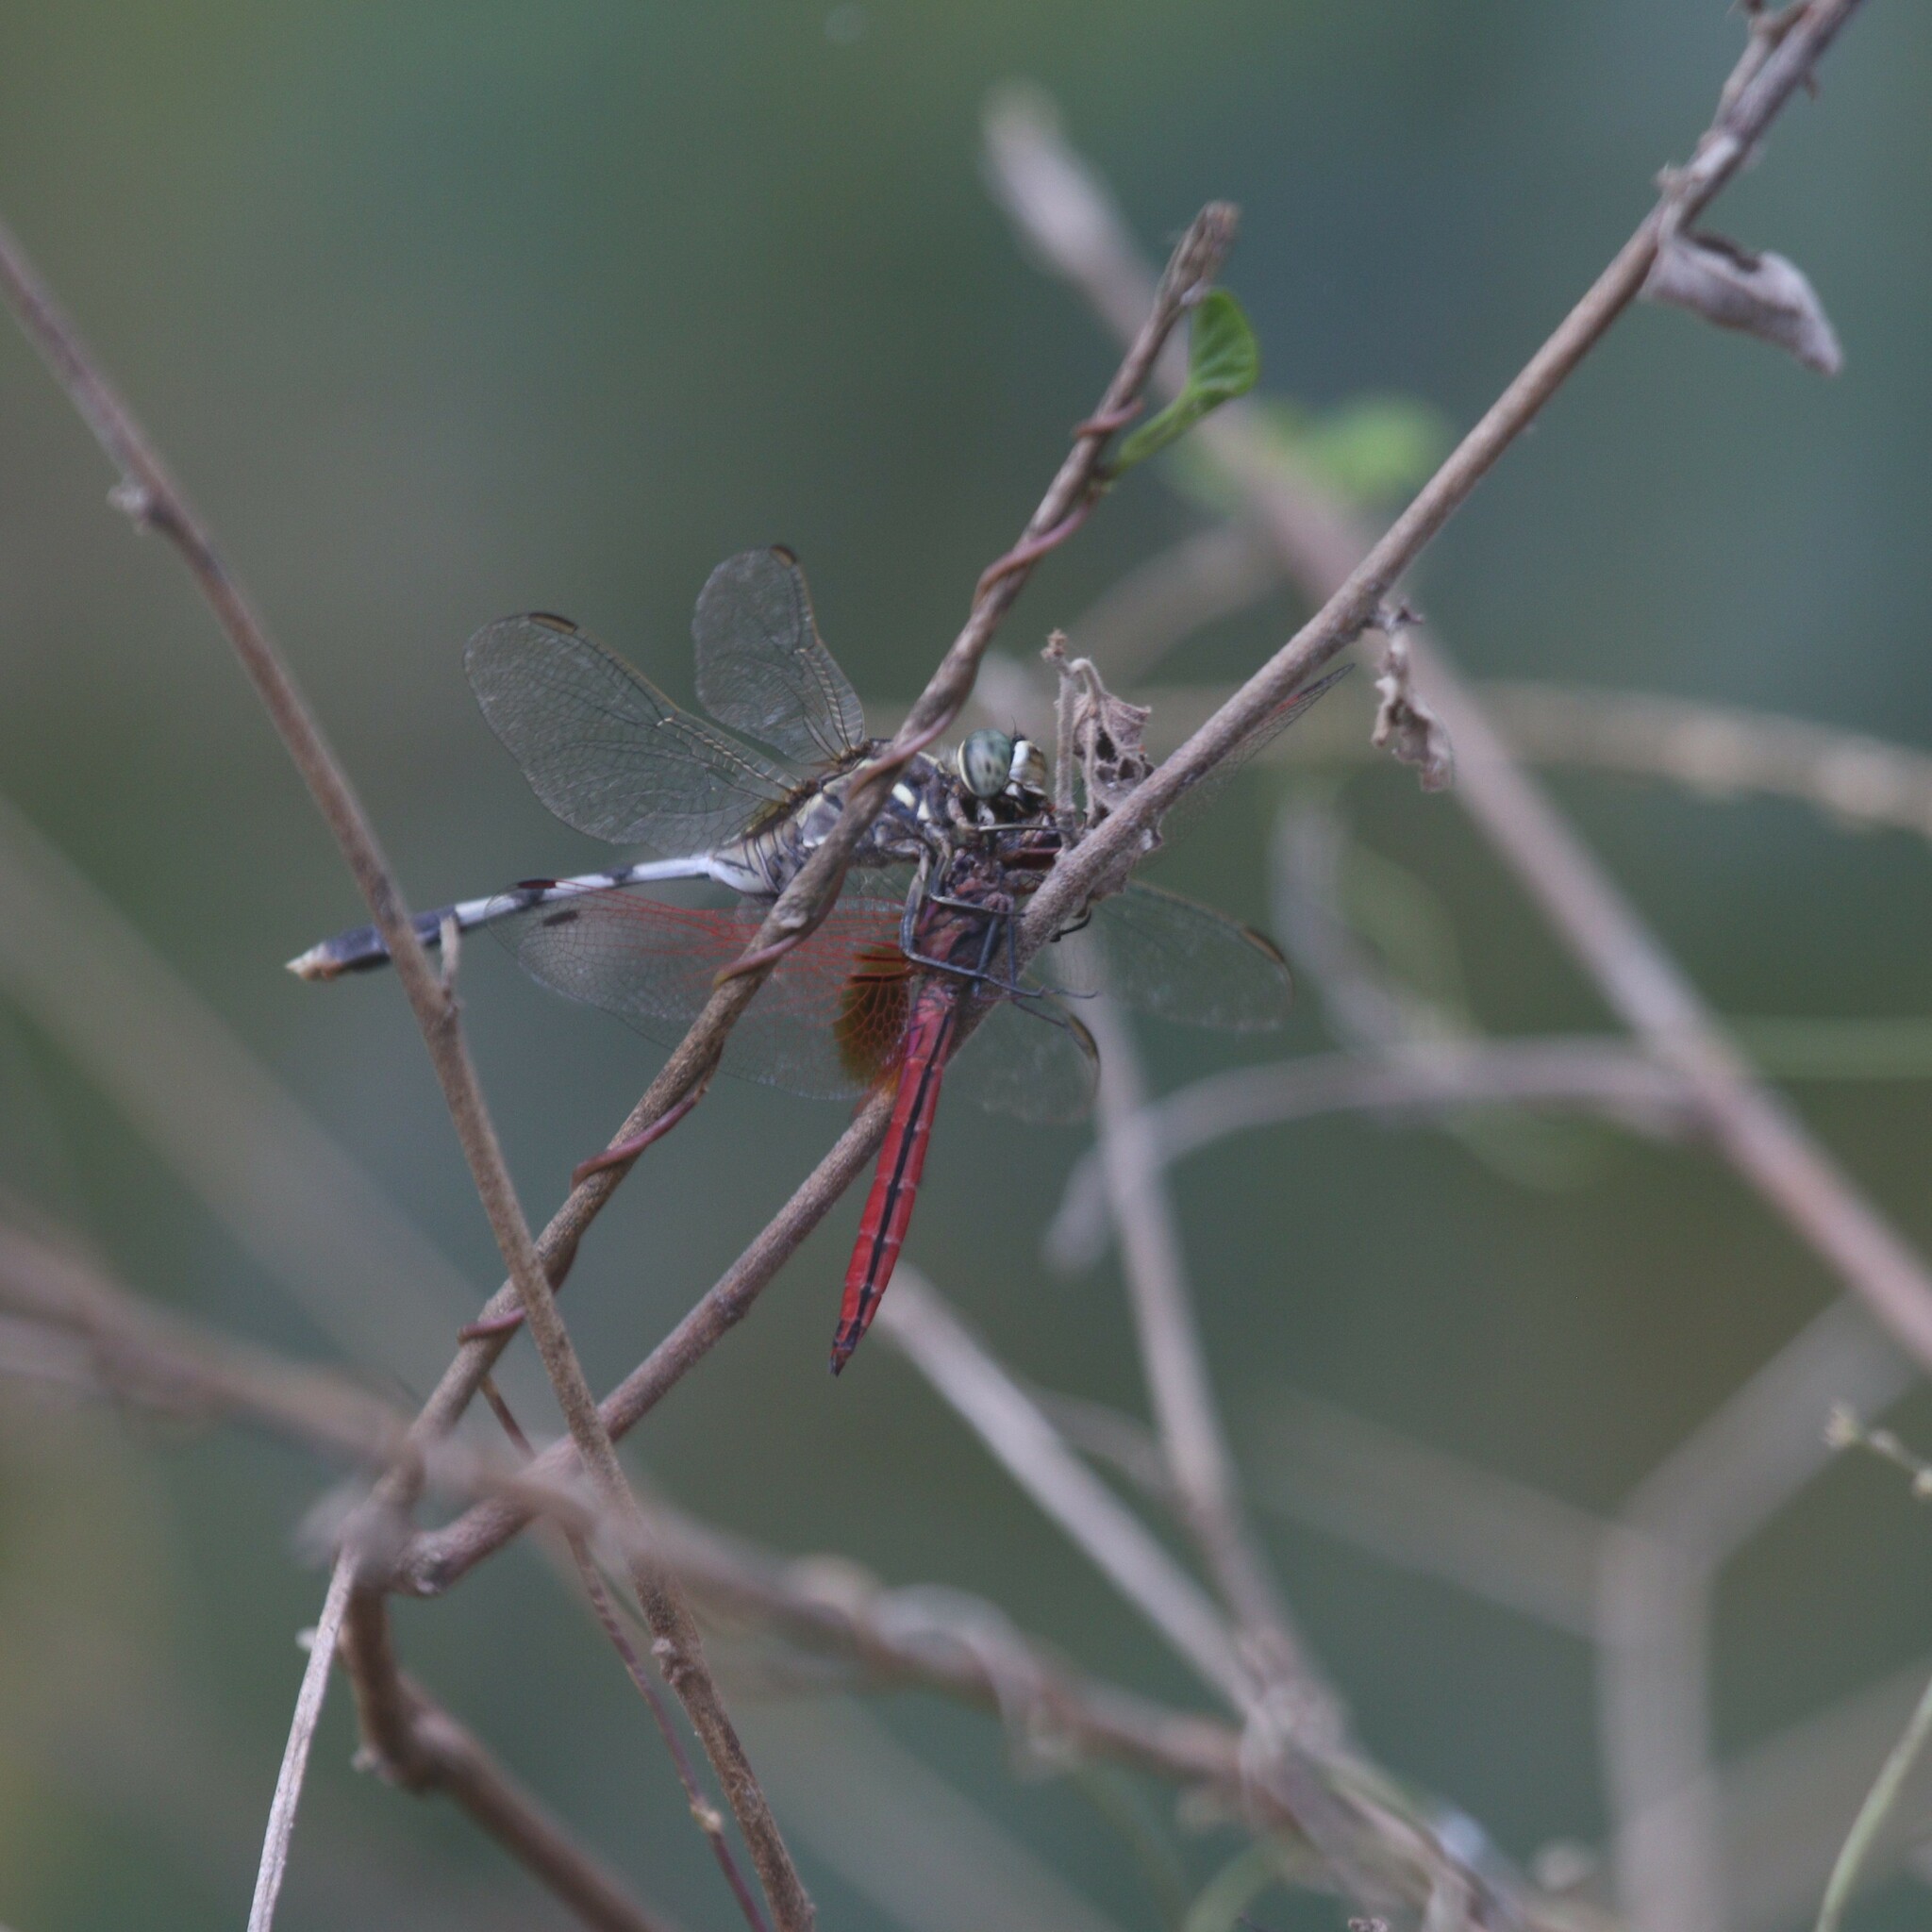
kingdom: Animalia
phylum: Arthropoda
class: Insecta
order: Odonata
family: Libellulidae
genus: Orthetrum
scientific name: Orthetrum sabina
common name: Slender skimmer
